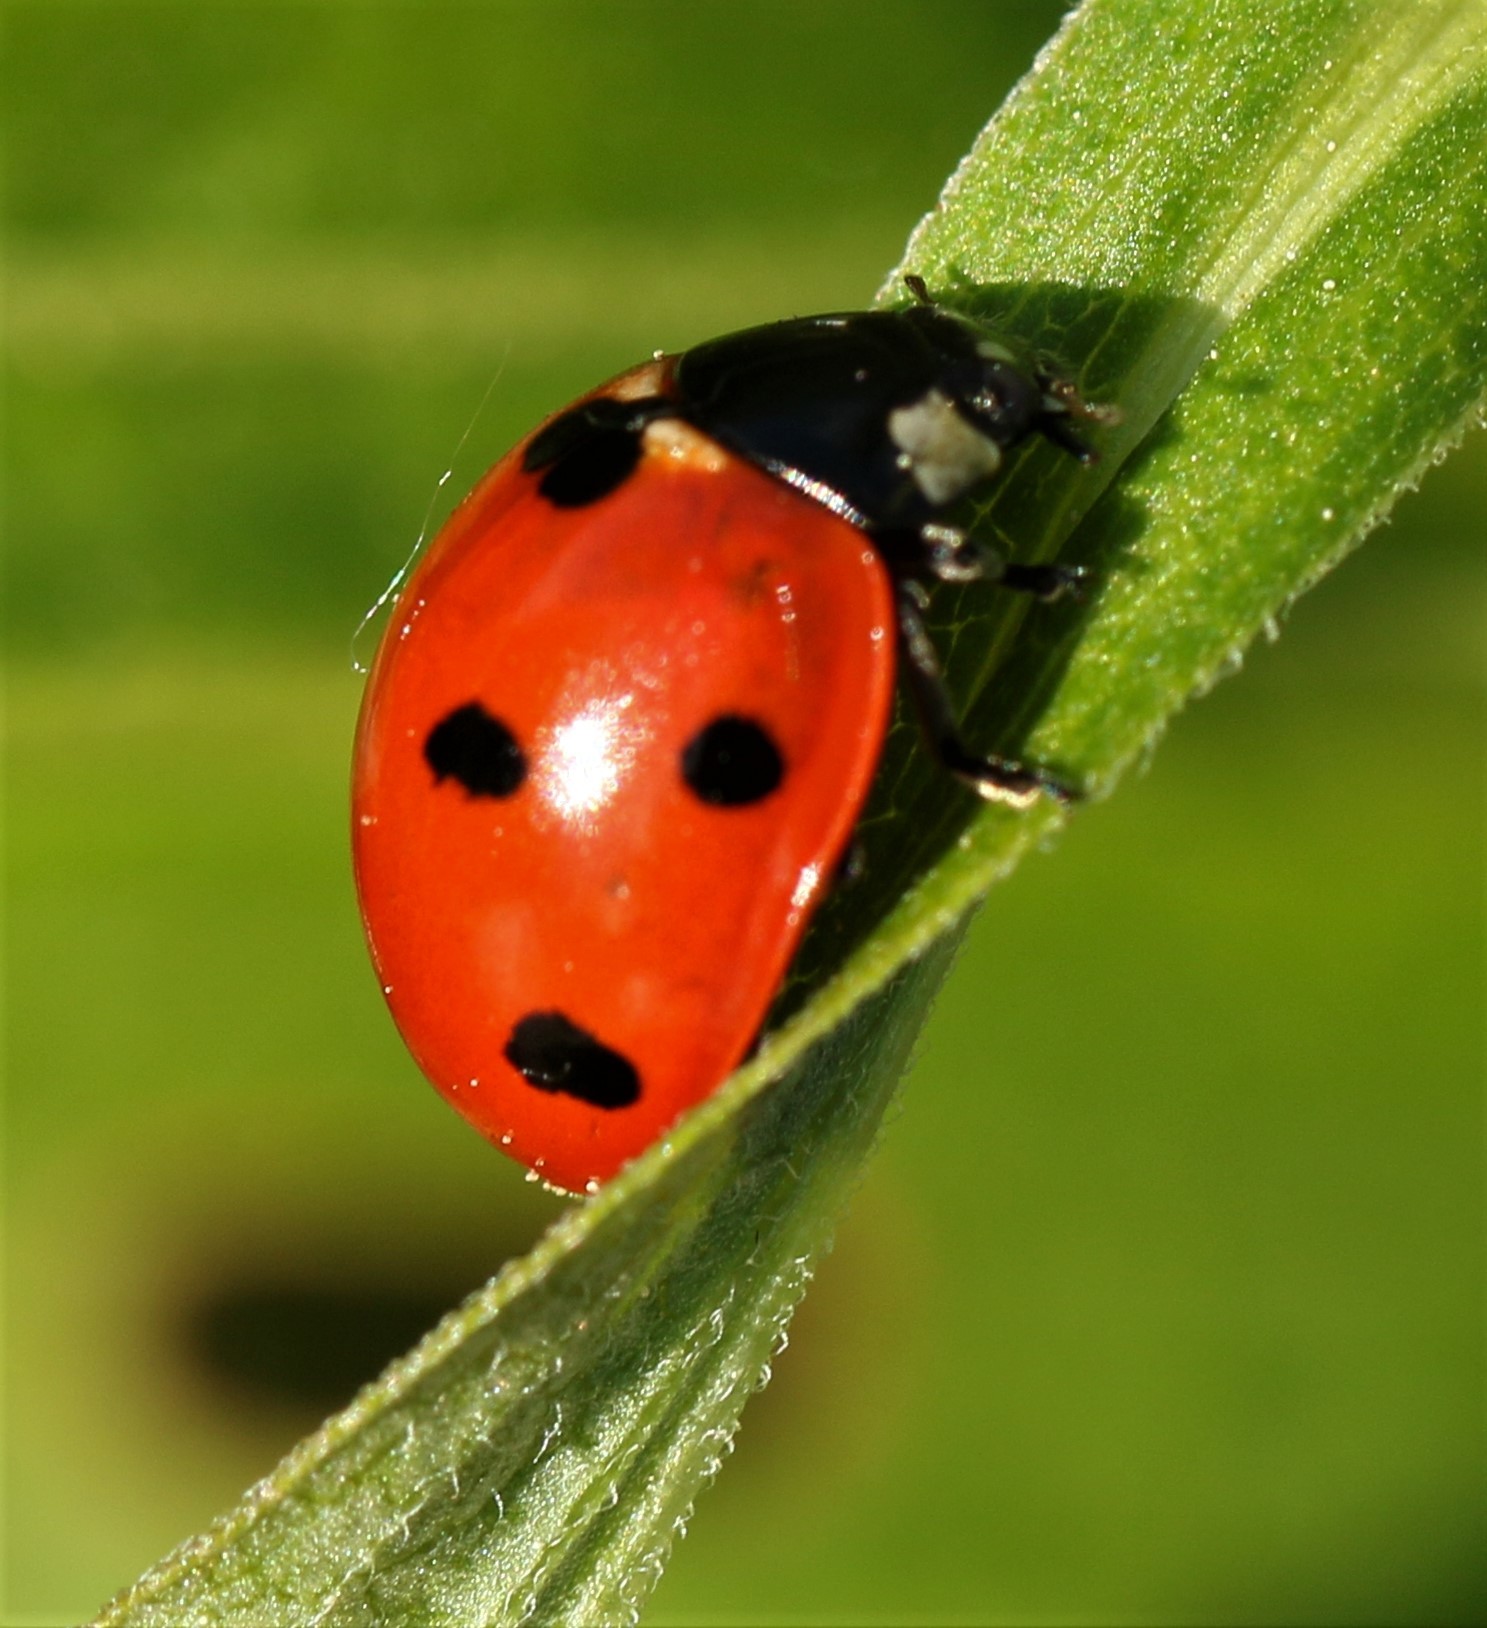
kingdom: Animalia
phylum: Arthropoda
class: Insecta
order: Coleoptera
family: Coccinellidae
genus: Coccinella
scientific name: Coccinella septempunctata
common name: Sevenspotted lady beetle
